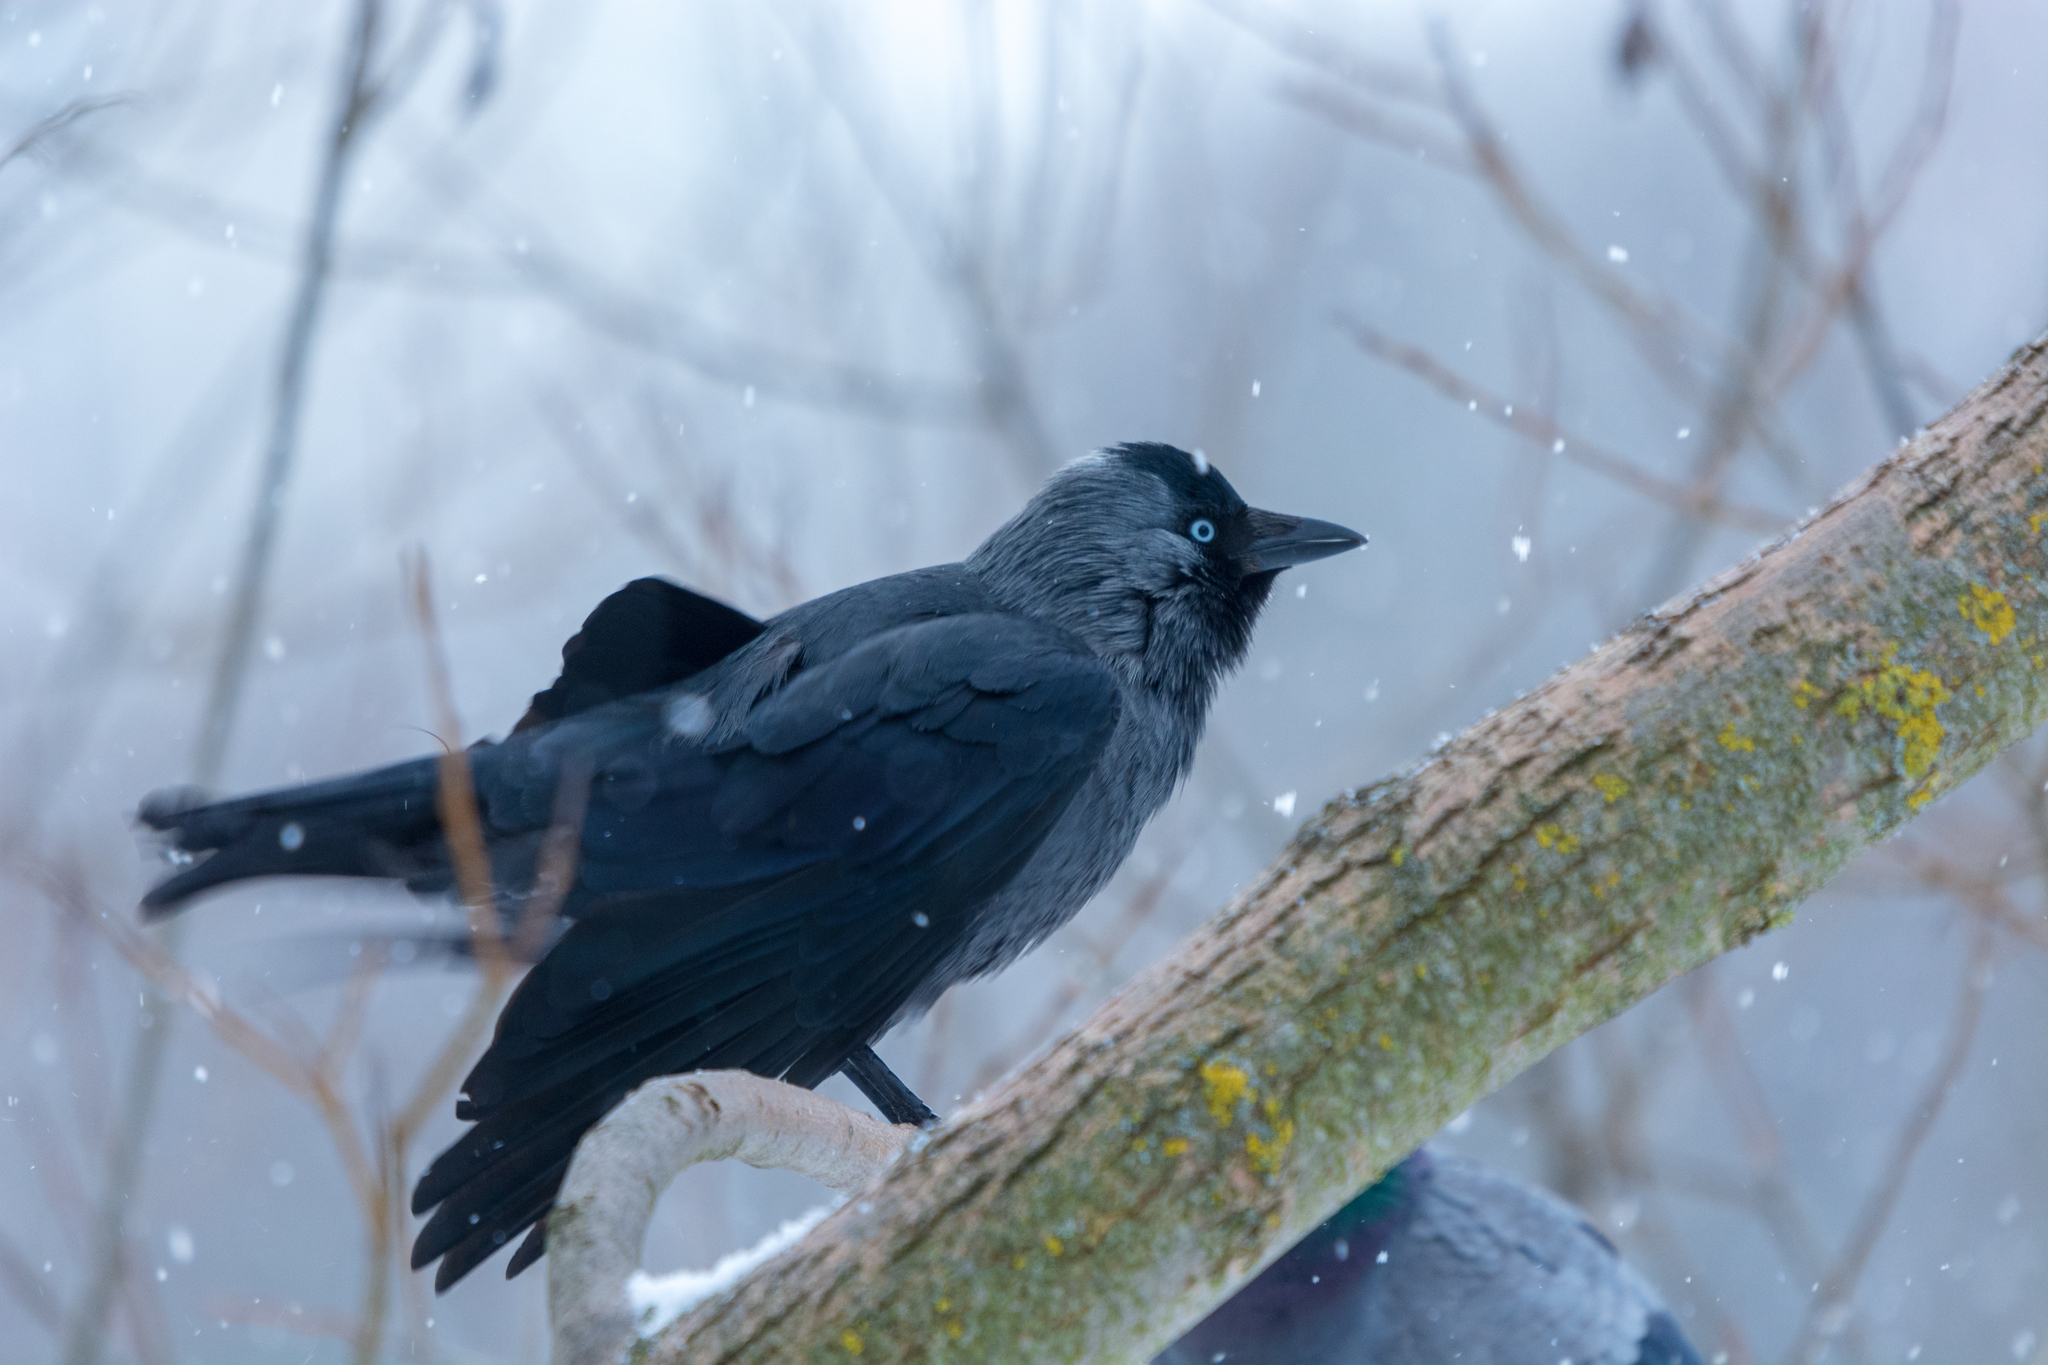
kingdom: Animalia
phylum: Chordata
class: Aves
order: Passeriformes
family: Corvidae
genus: Coloeus
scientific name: Coloeus monedula
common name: Western jackdaw
